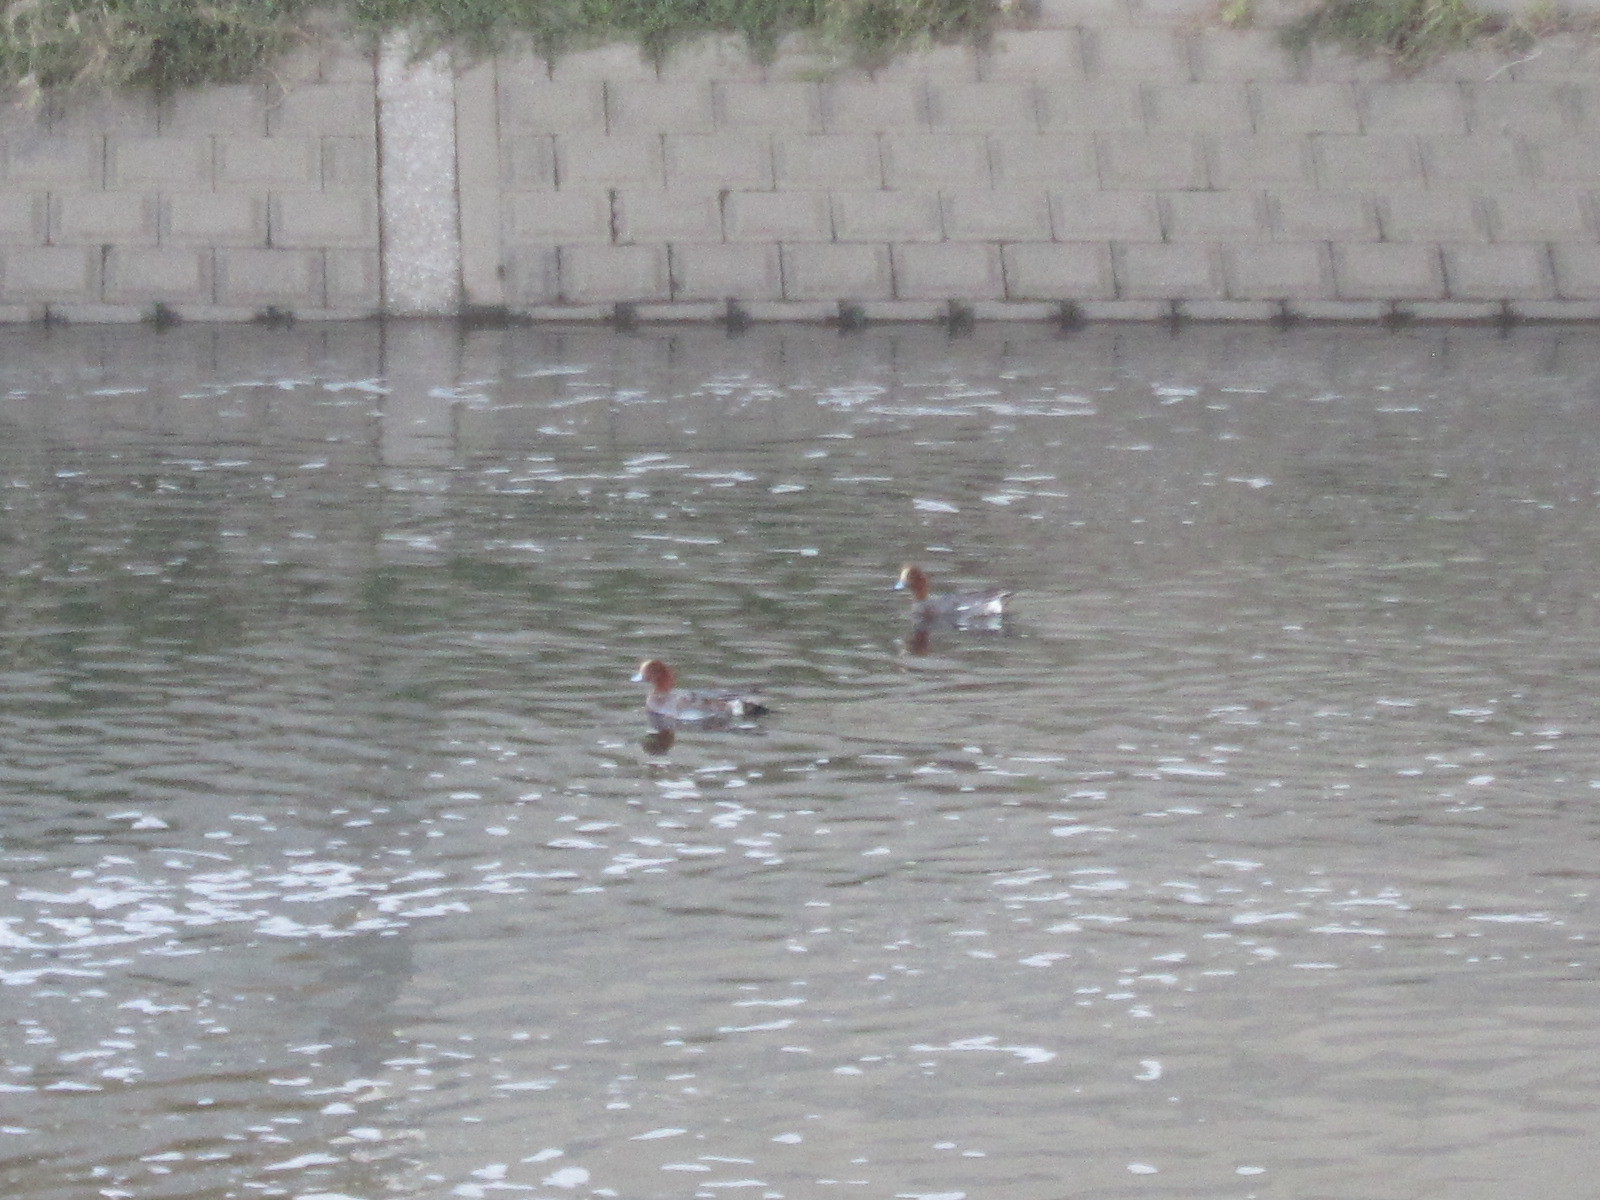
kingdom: Animalia
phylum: Chordata
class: Aves
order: Anseriformes
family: Anatidae
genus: Mareca
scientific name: Mareca penelope
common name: Eurasian wigeon
